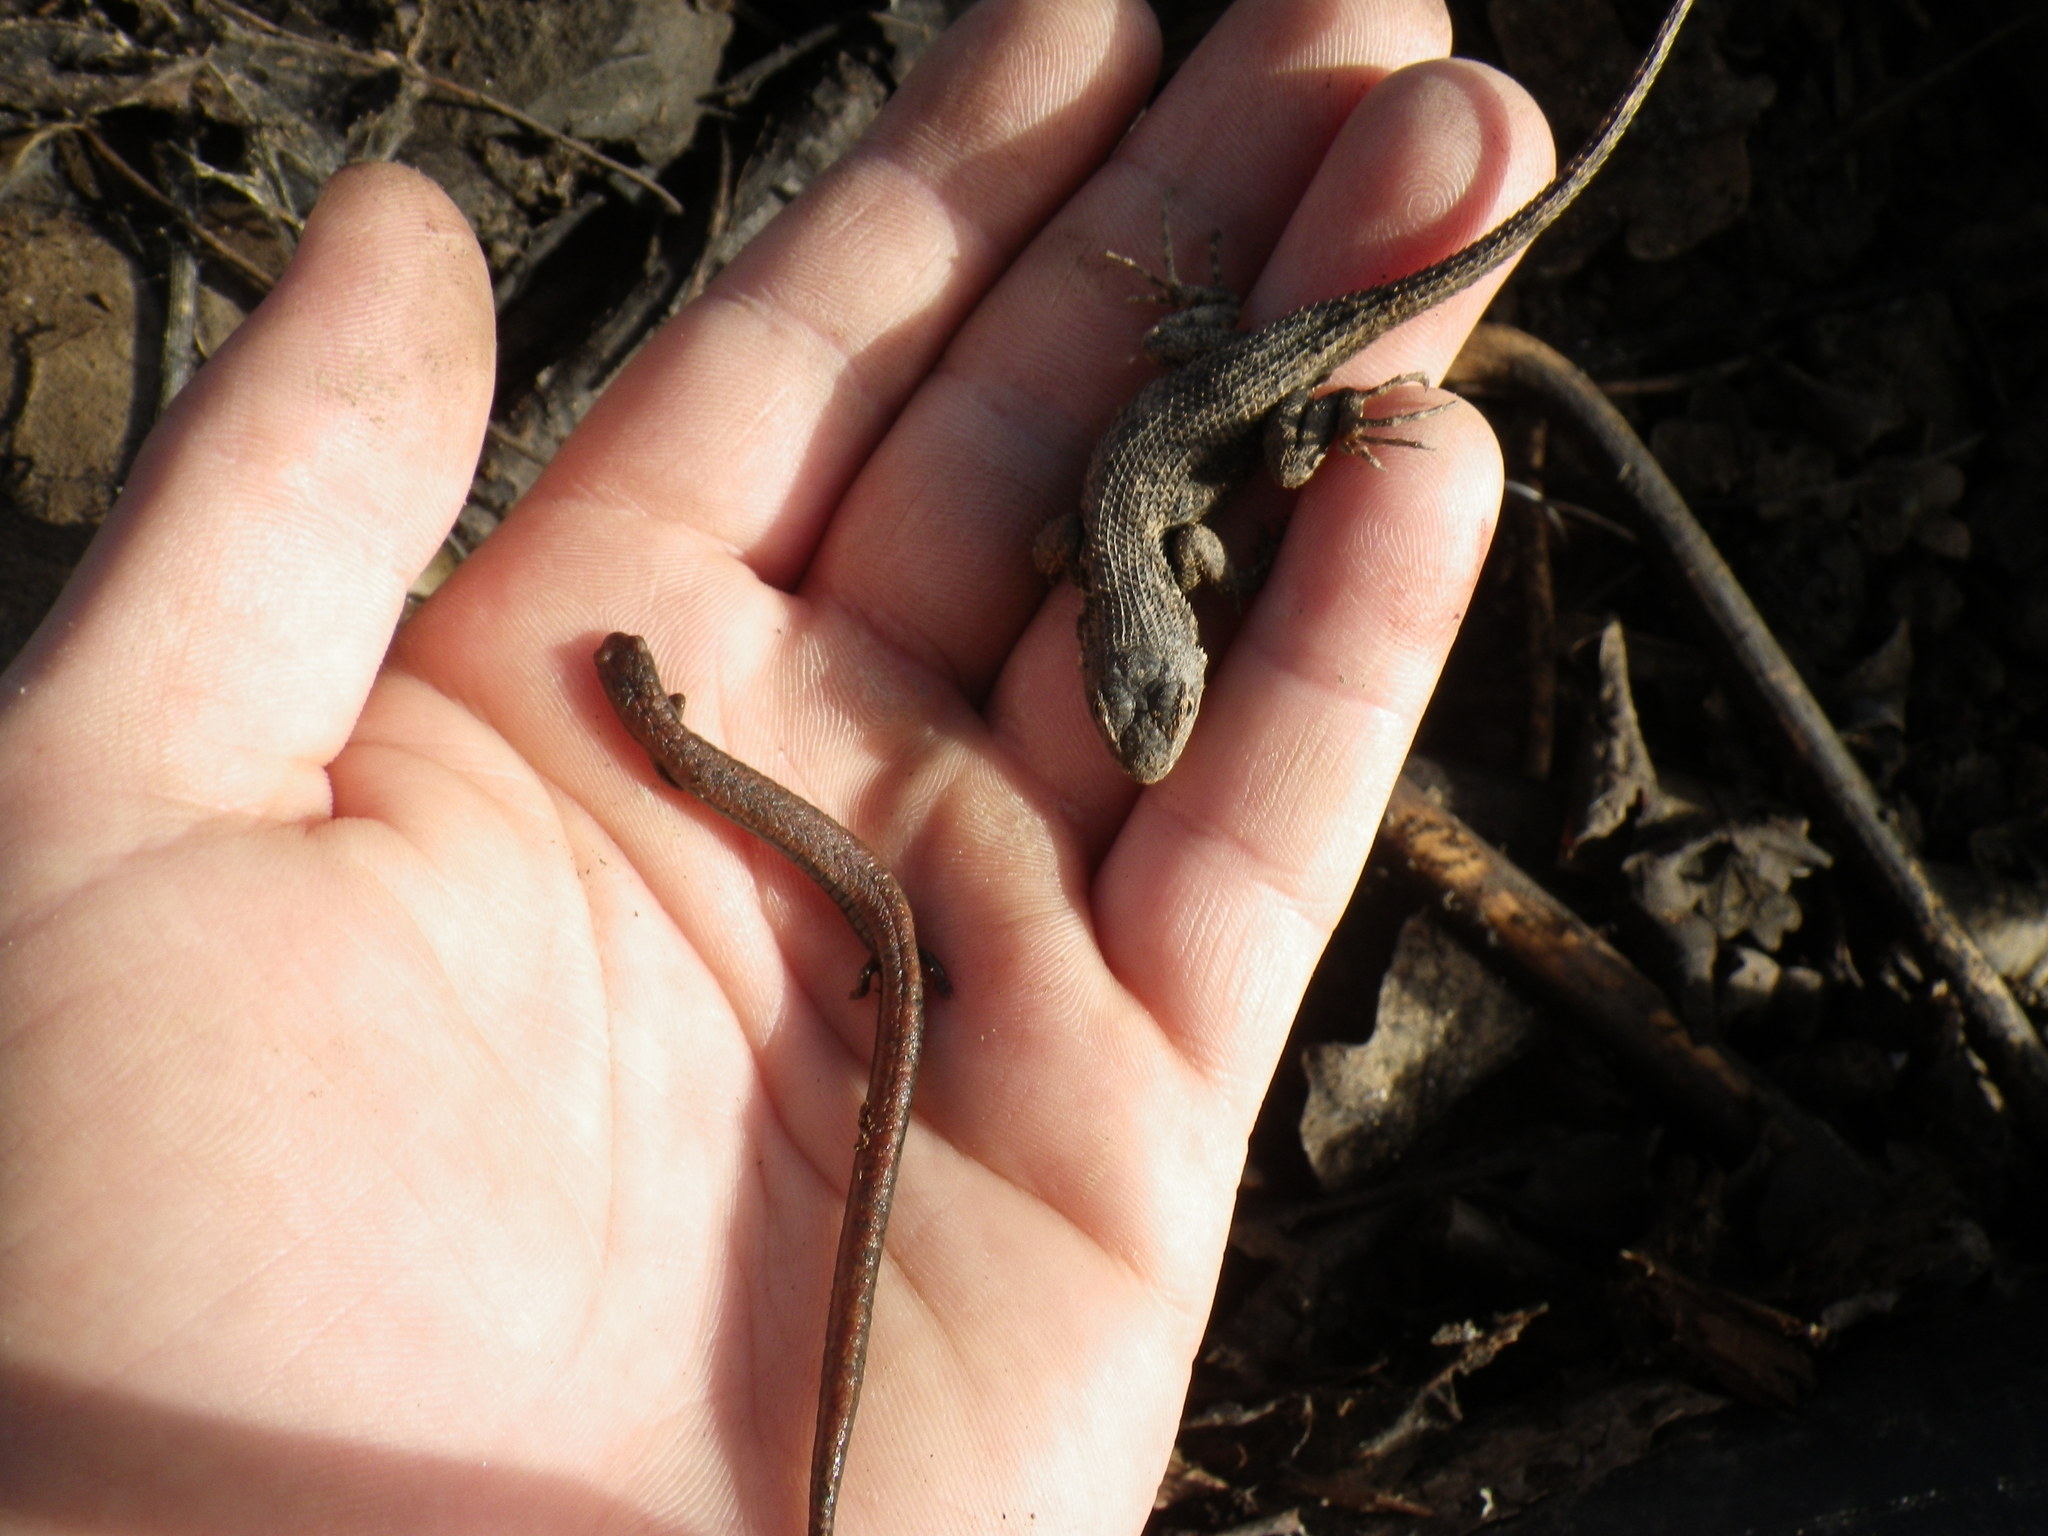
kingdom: Animalia
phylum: Chordata
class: Amphibia
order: Caudata
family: Plethodontidae
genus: Batrachoseps
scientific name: Batrachoseps attenuatus
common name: California slender salamander
